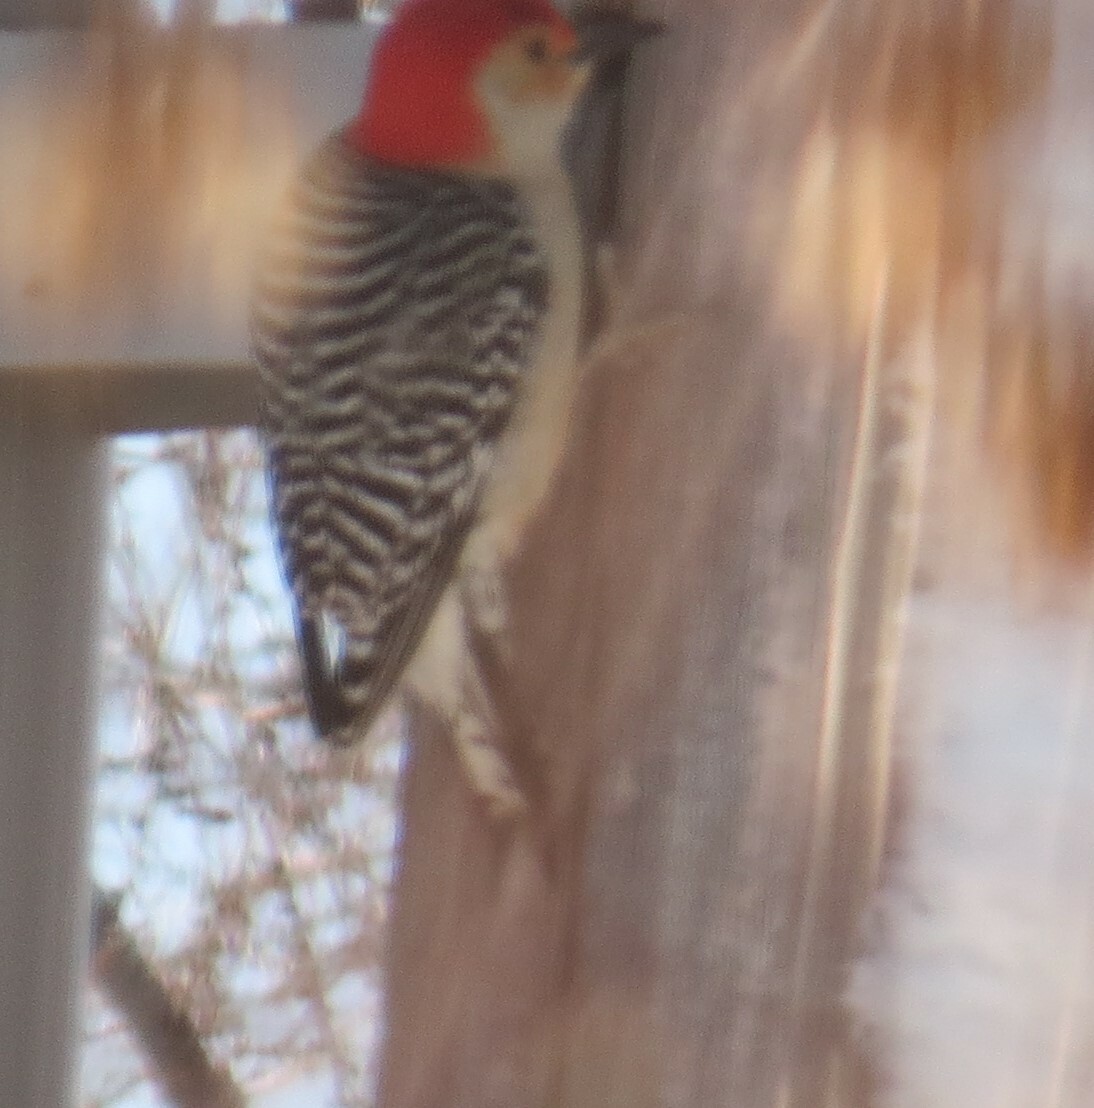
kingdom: Animalia
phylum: Chordata
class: Aves
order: Piciformes
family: Picidae
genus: Melanerpes
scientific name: Melanerpes carolinus
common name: Red-bellied woodpecker
